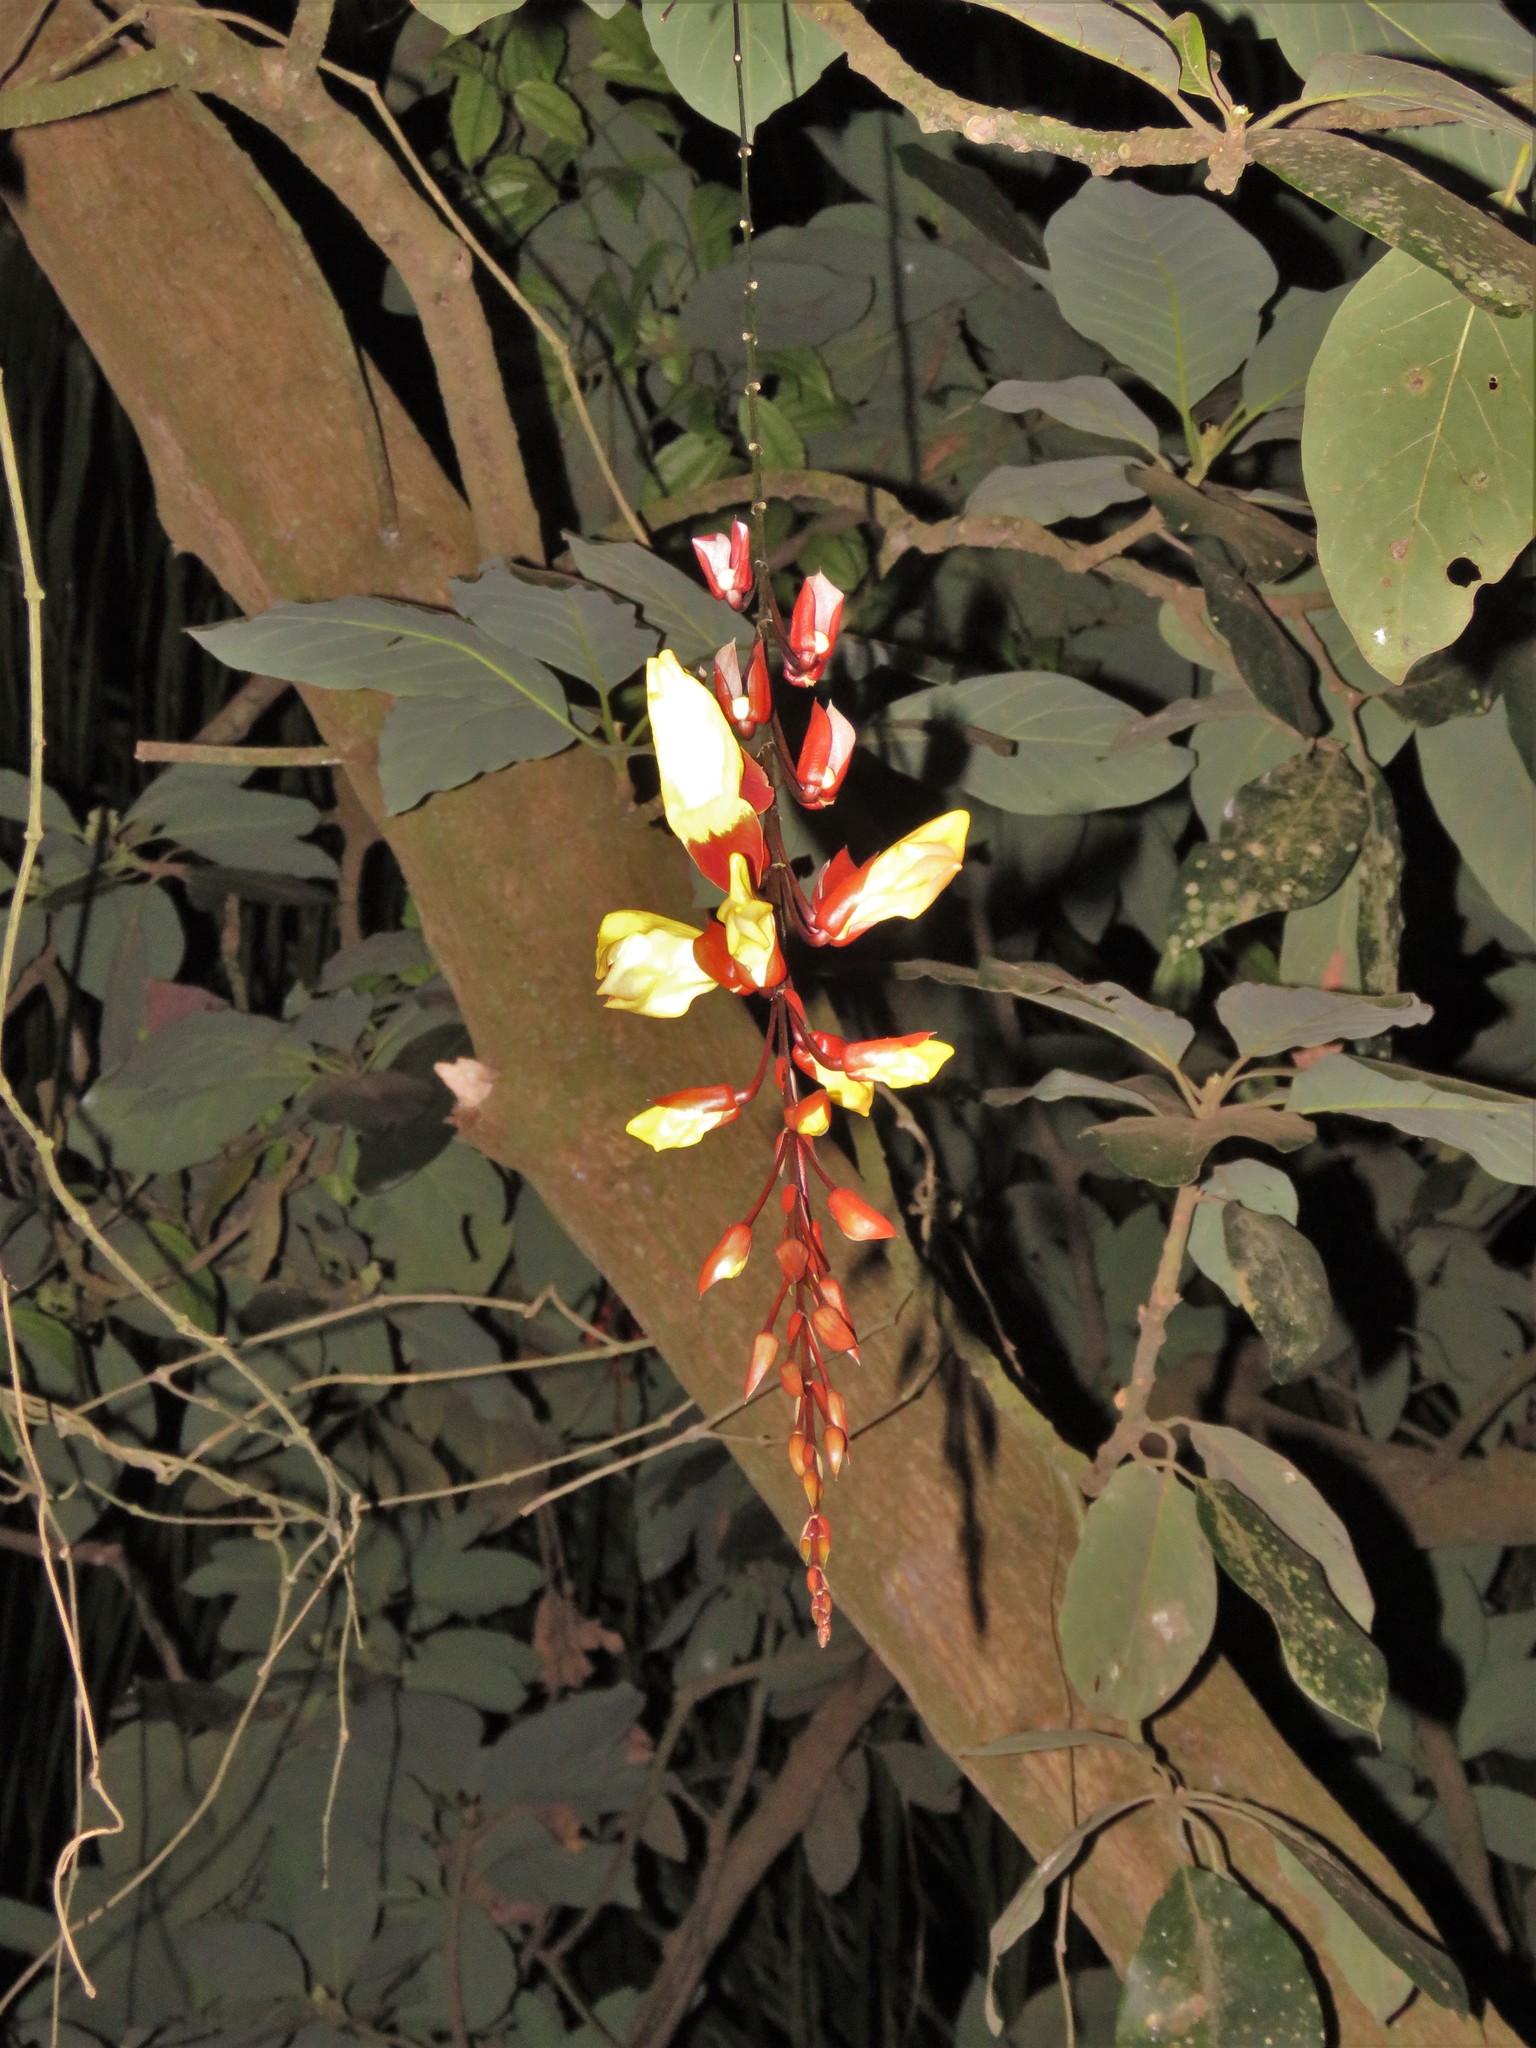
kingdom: Plantae
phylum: Tracheophyta
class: Magnoliopsida
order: Lamiales
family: Acanthaceae
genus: Thunbergia
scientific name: Thunbergia mysorensis
